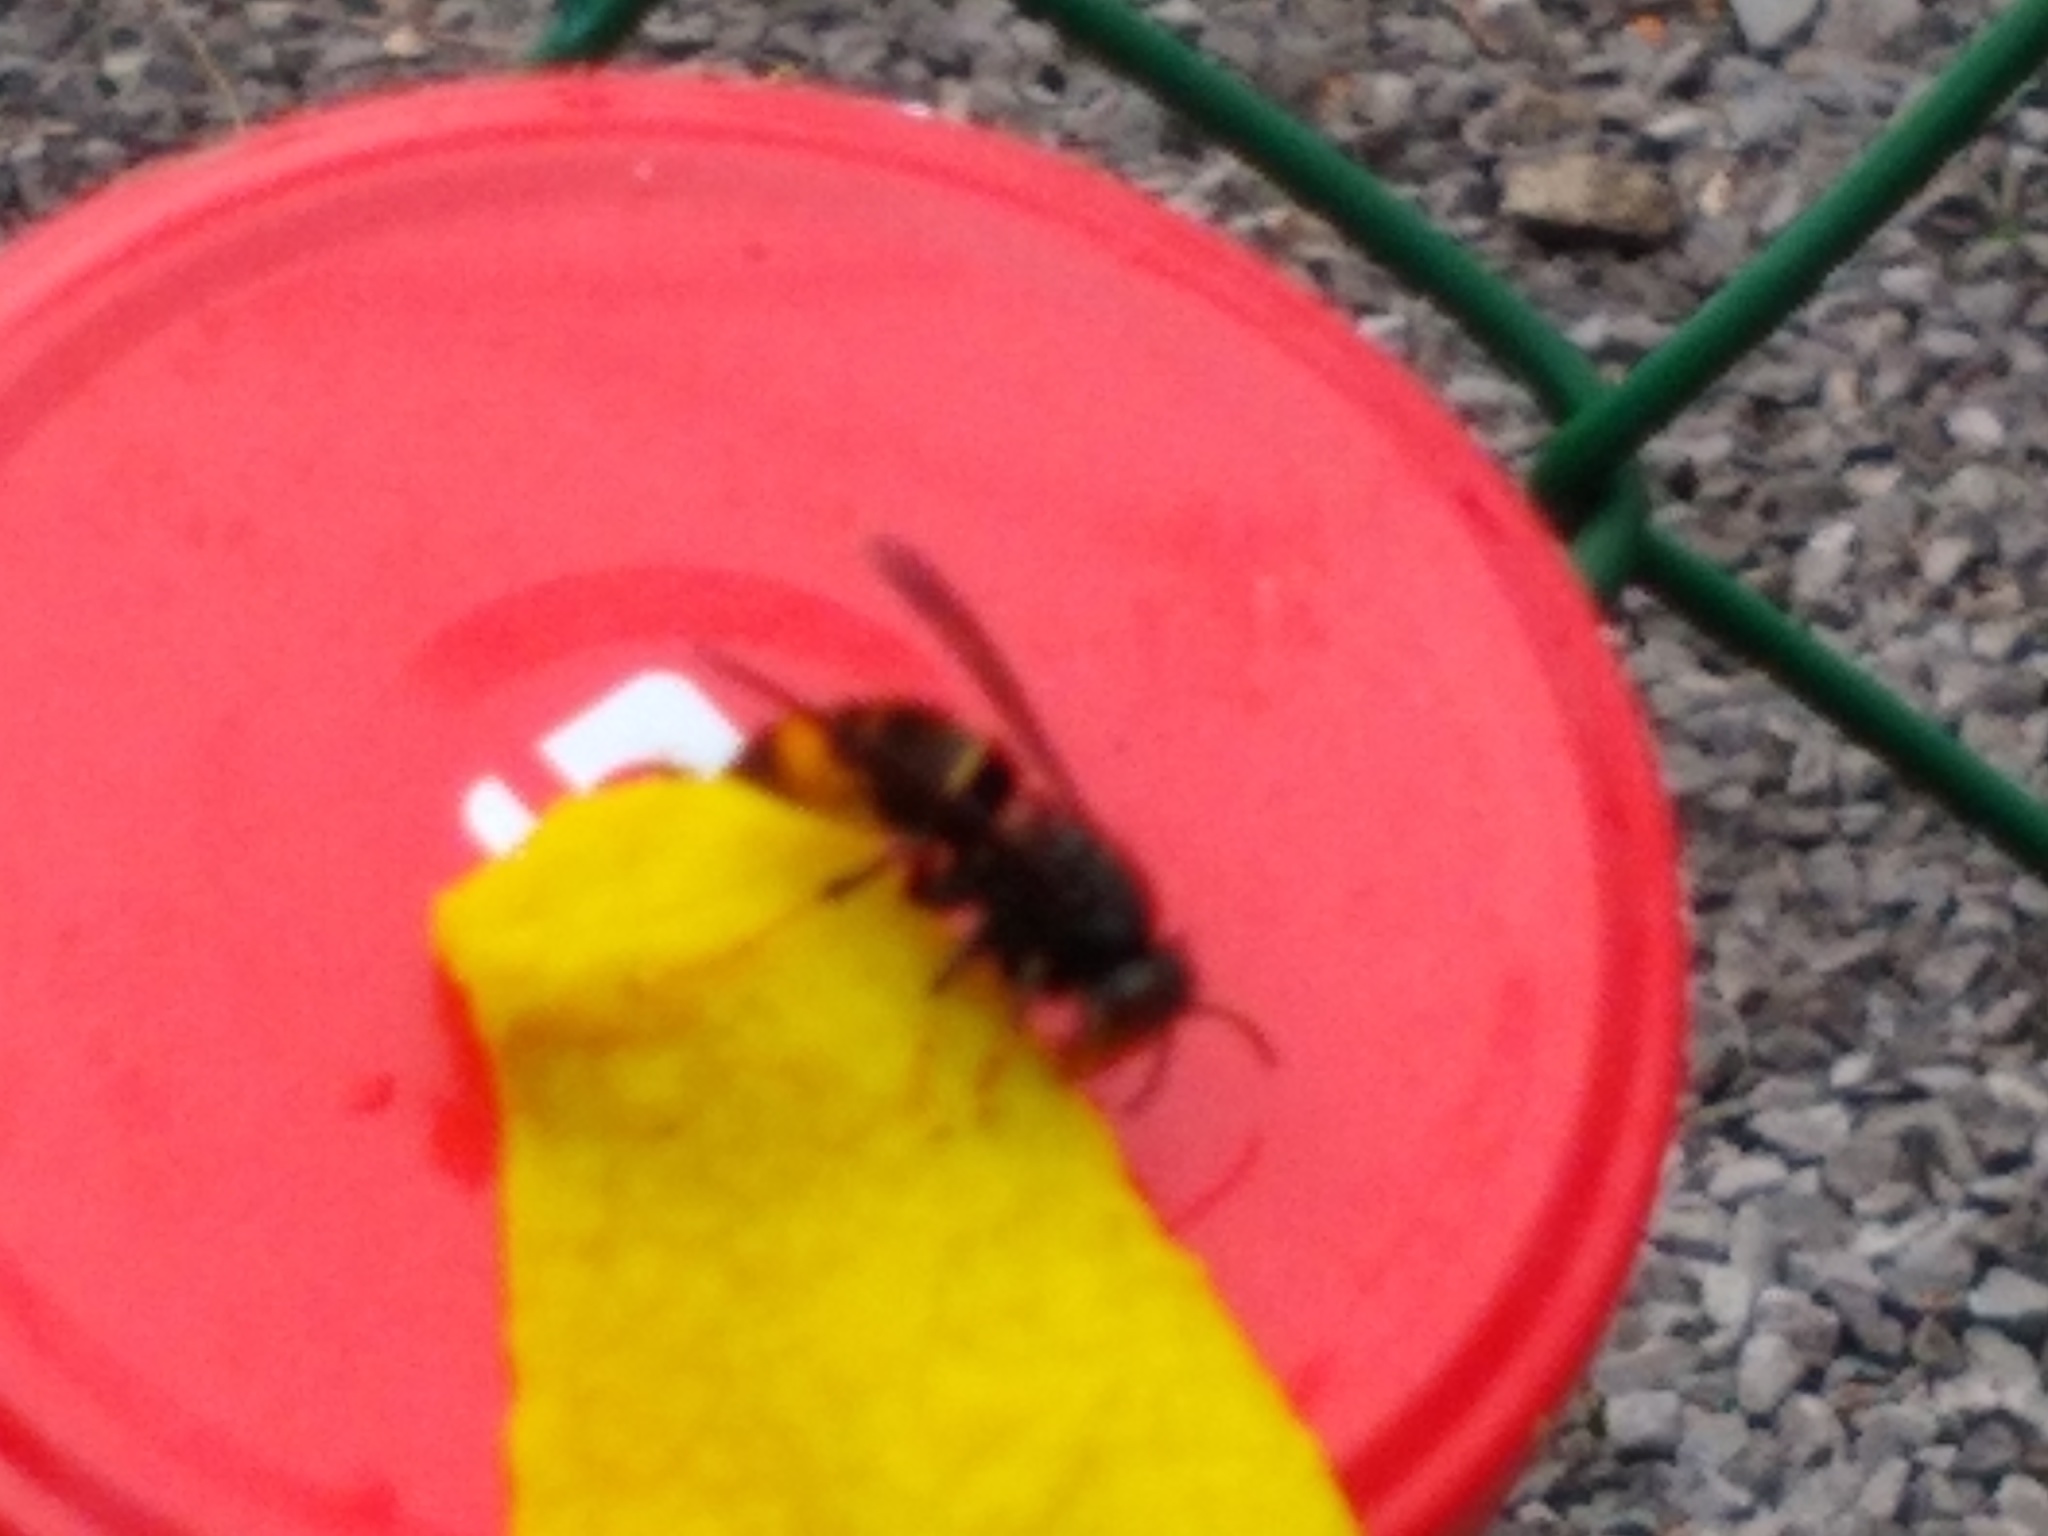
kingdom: Animalia
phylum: Arthropoda
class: Insecta
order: Hymenoptera
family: Vespidae
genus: Vespa
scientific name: Vespa velutina
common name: Asian hornet
